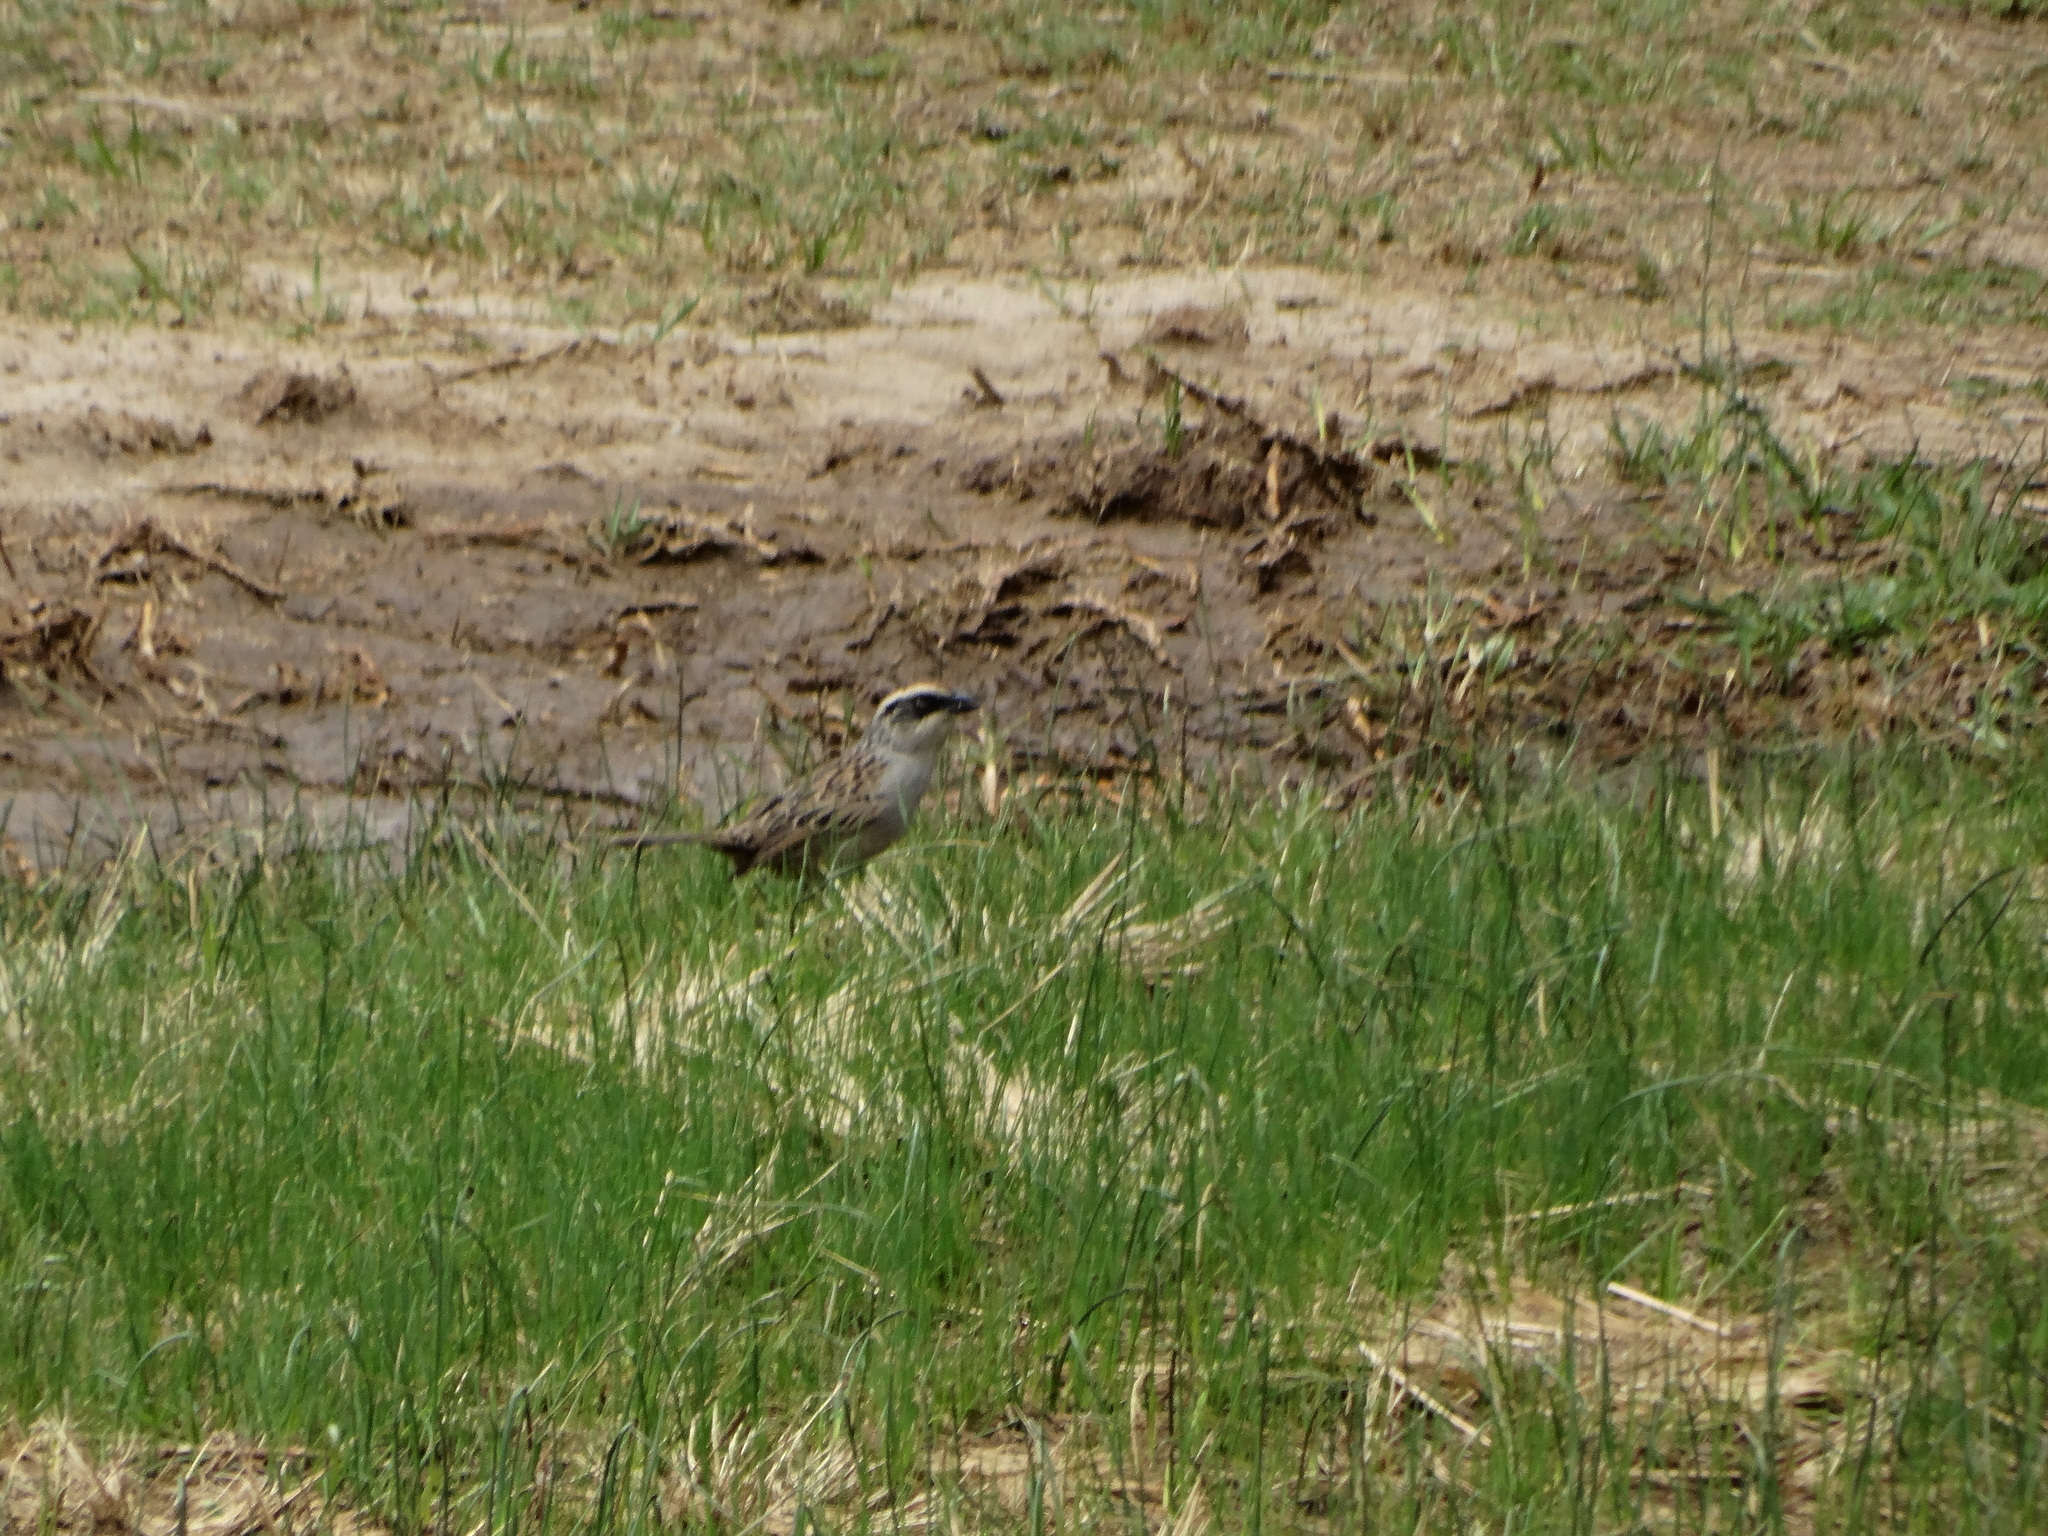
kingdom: Animalia
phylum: Chordata
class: Aves
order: Passeriformes
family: Passerellidae
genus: Oriturus
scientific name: Oriturus superciliosus
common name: Striped sparrow
